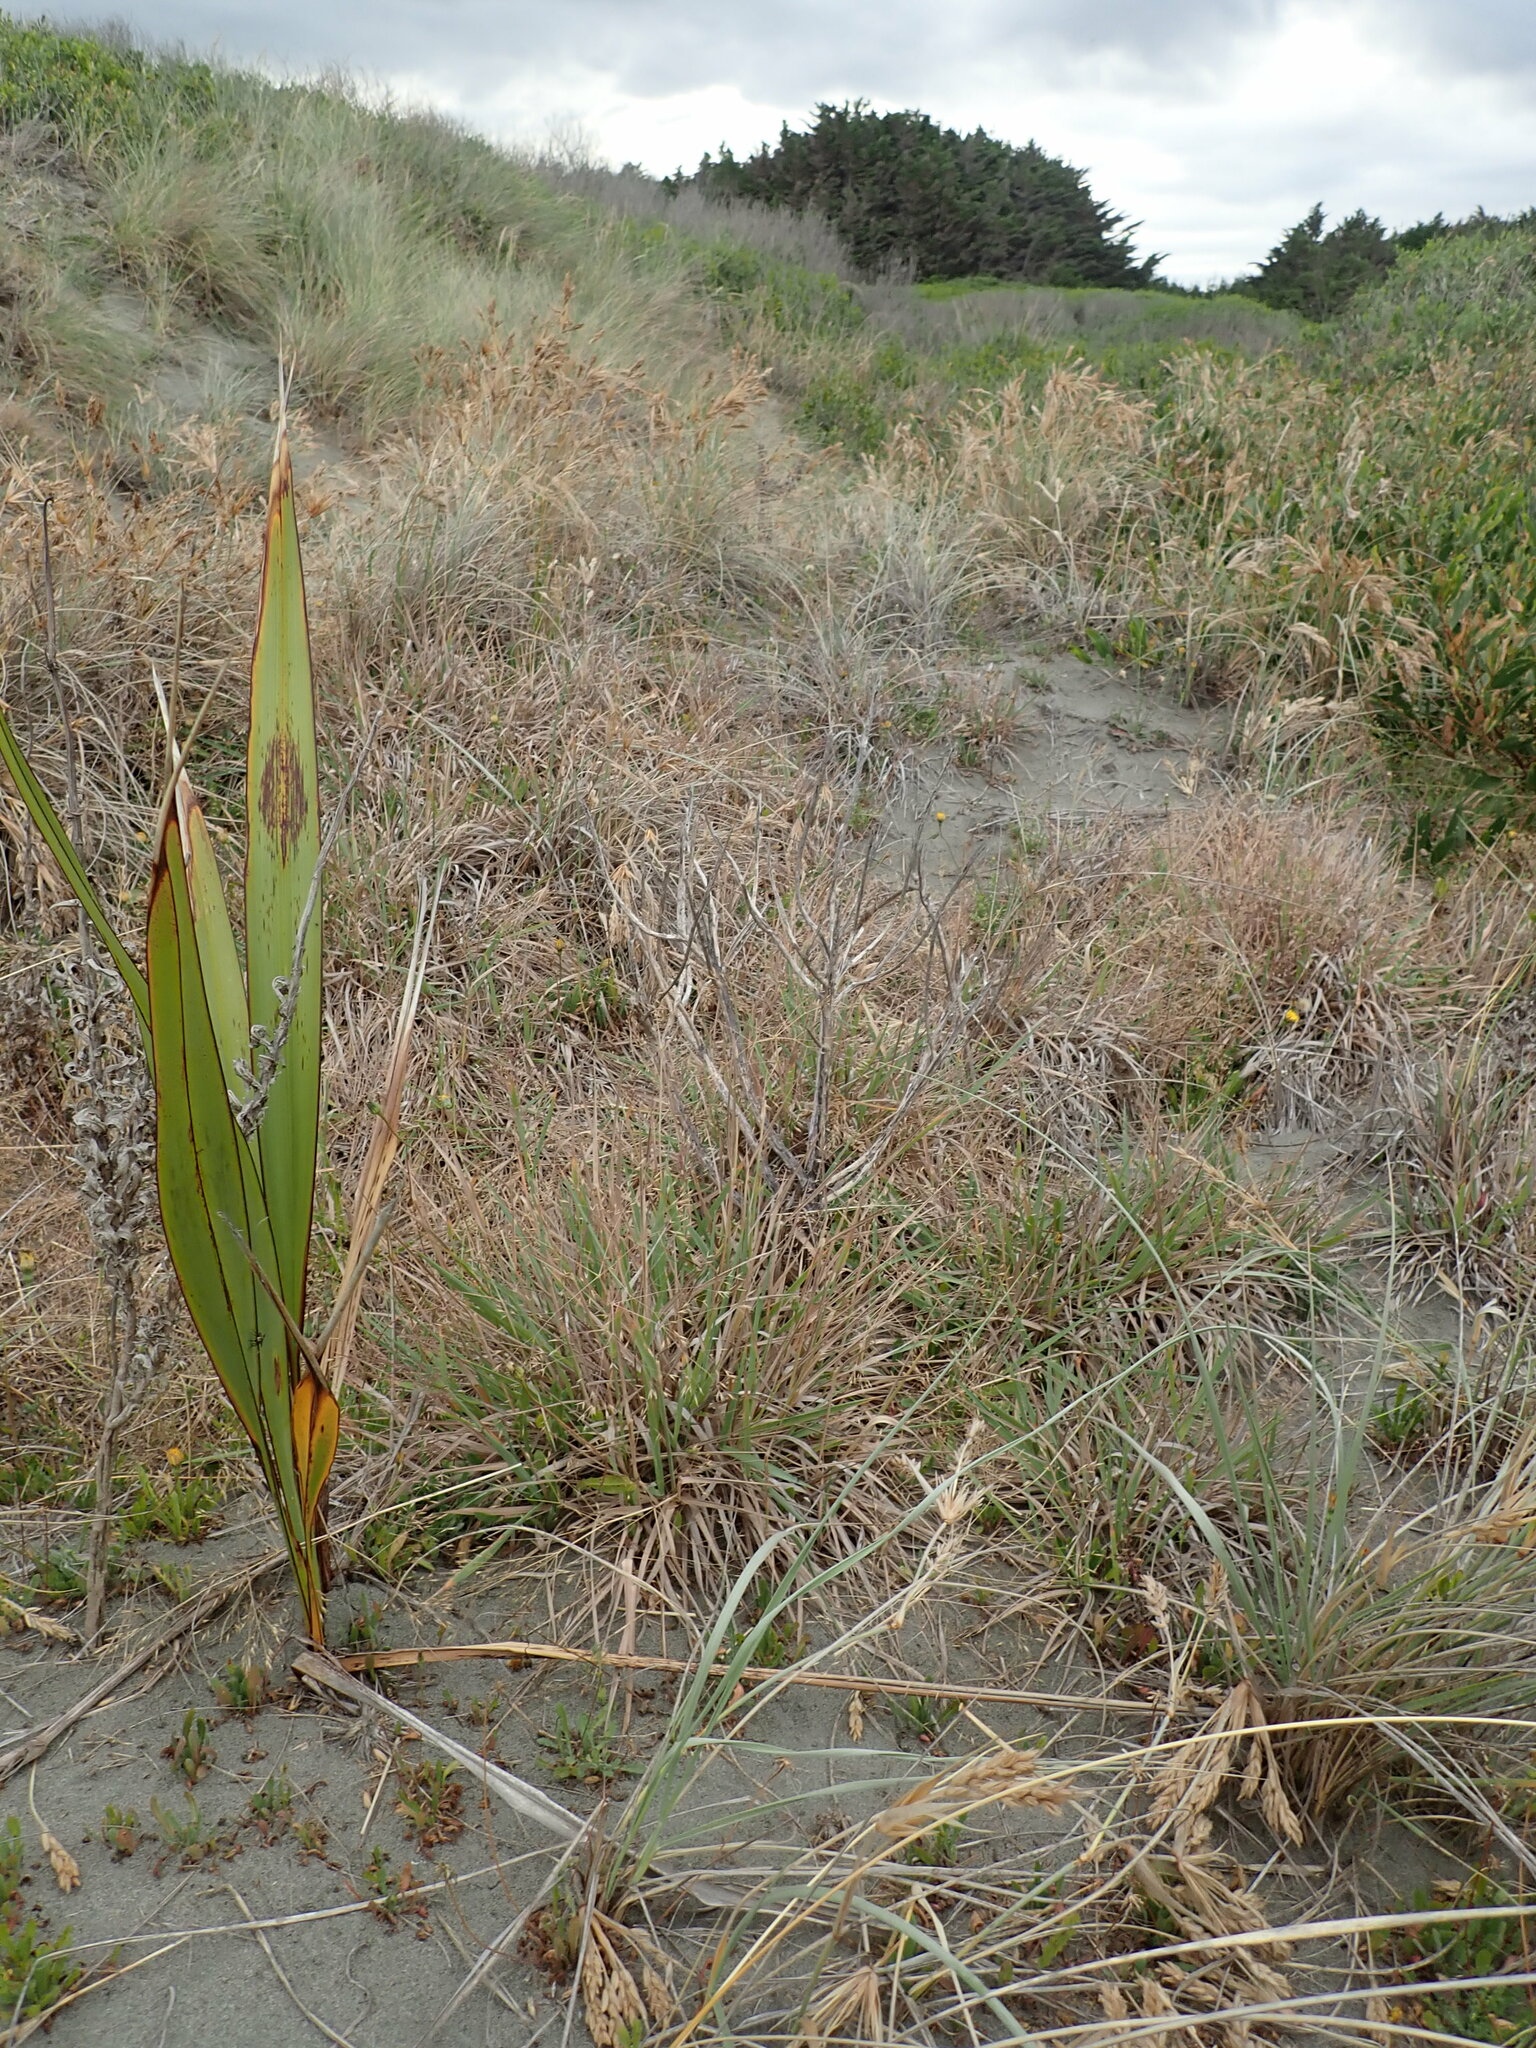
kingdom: Plantae
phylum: Tracheophyta
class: Liliopsida
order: Asparagales
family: Asphodelaceae
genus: Phormium
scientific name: Phormium tenax
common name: New zealand flax
